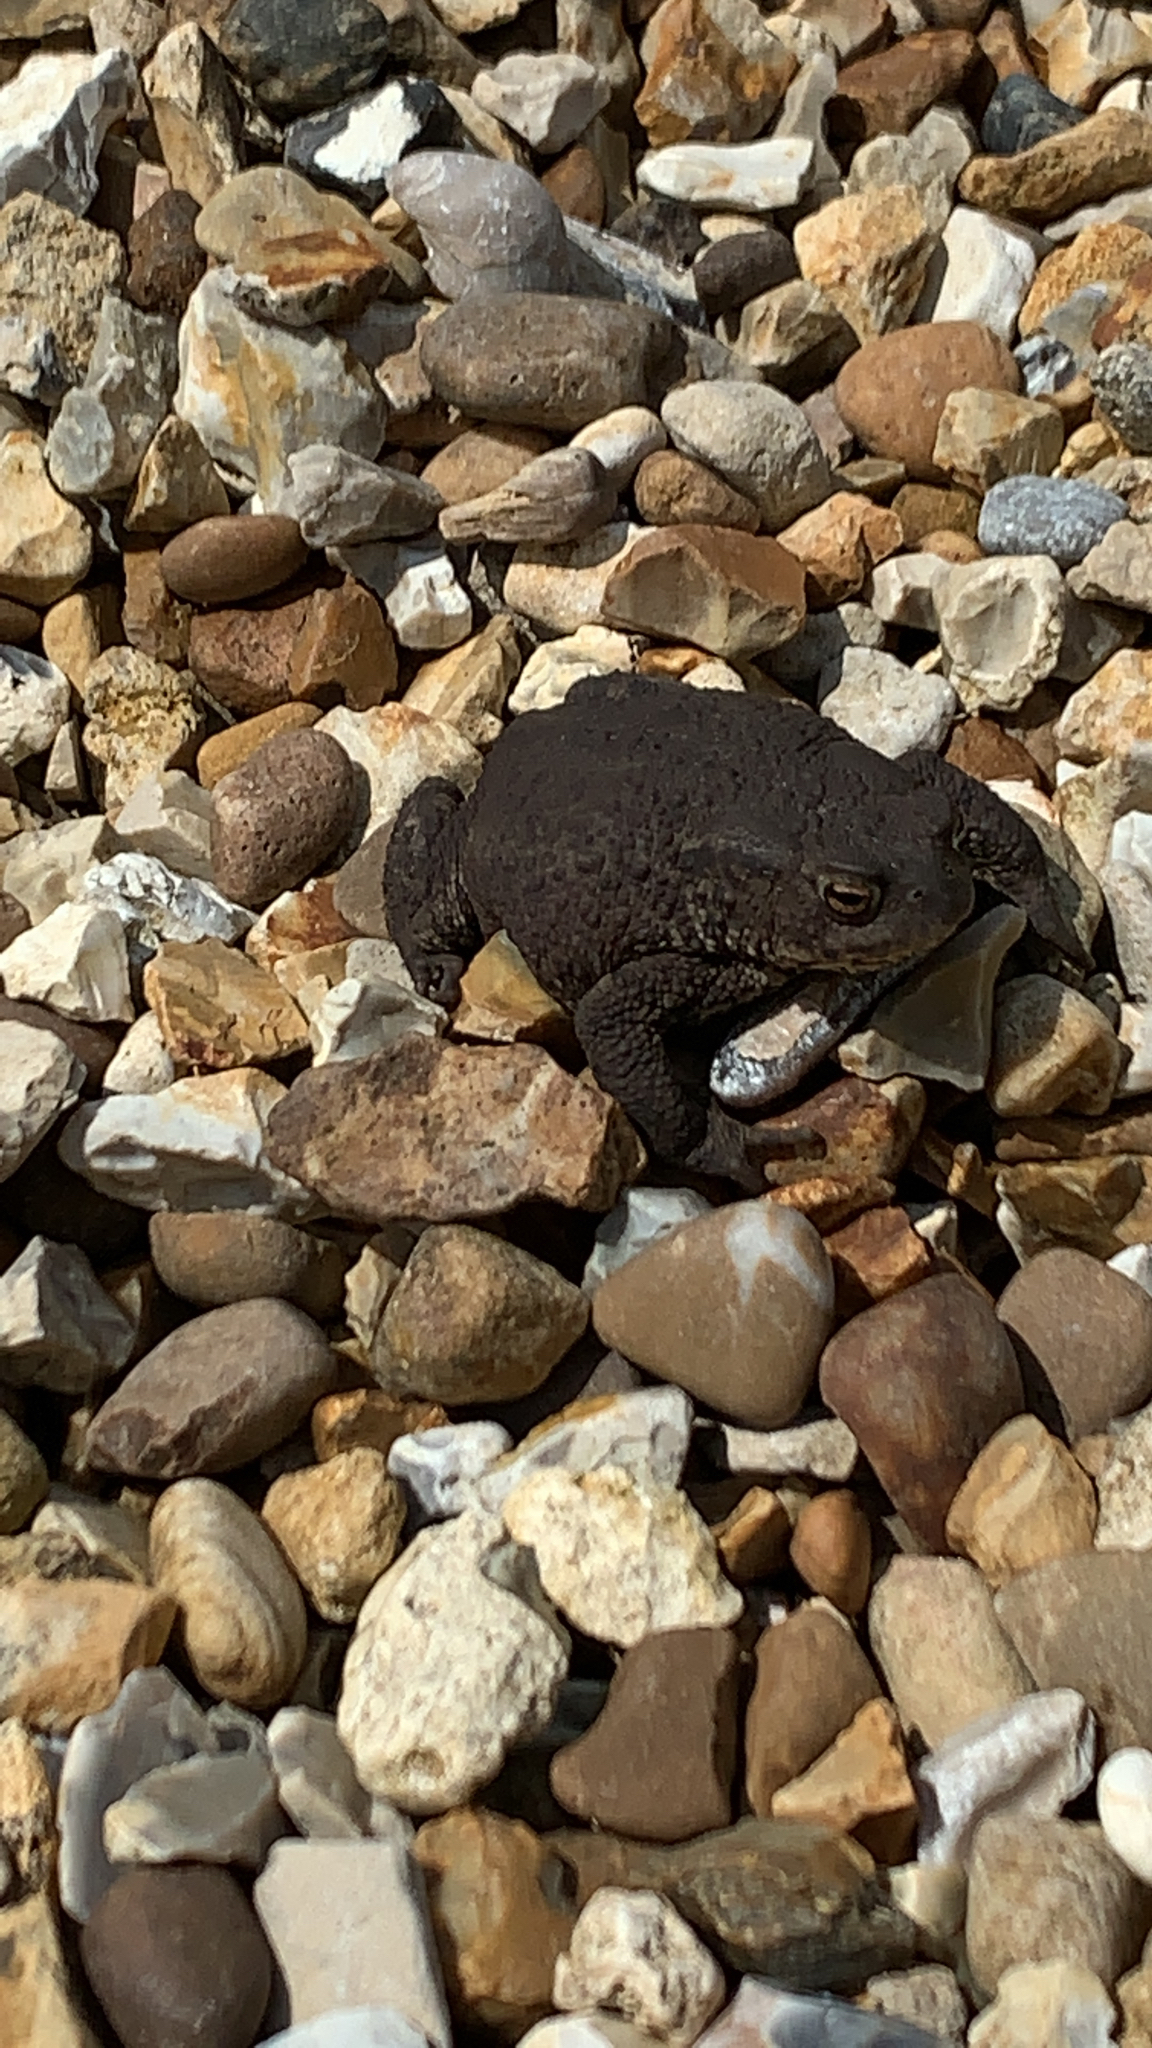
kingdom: Animalia
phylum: Chordata
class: Amphibia
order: Anura
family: Bufonidae
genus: Bufo
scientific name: Bufo bufo
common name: Common toad
